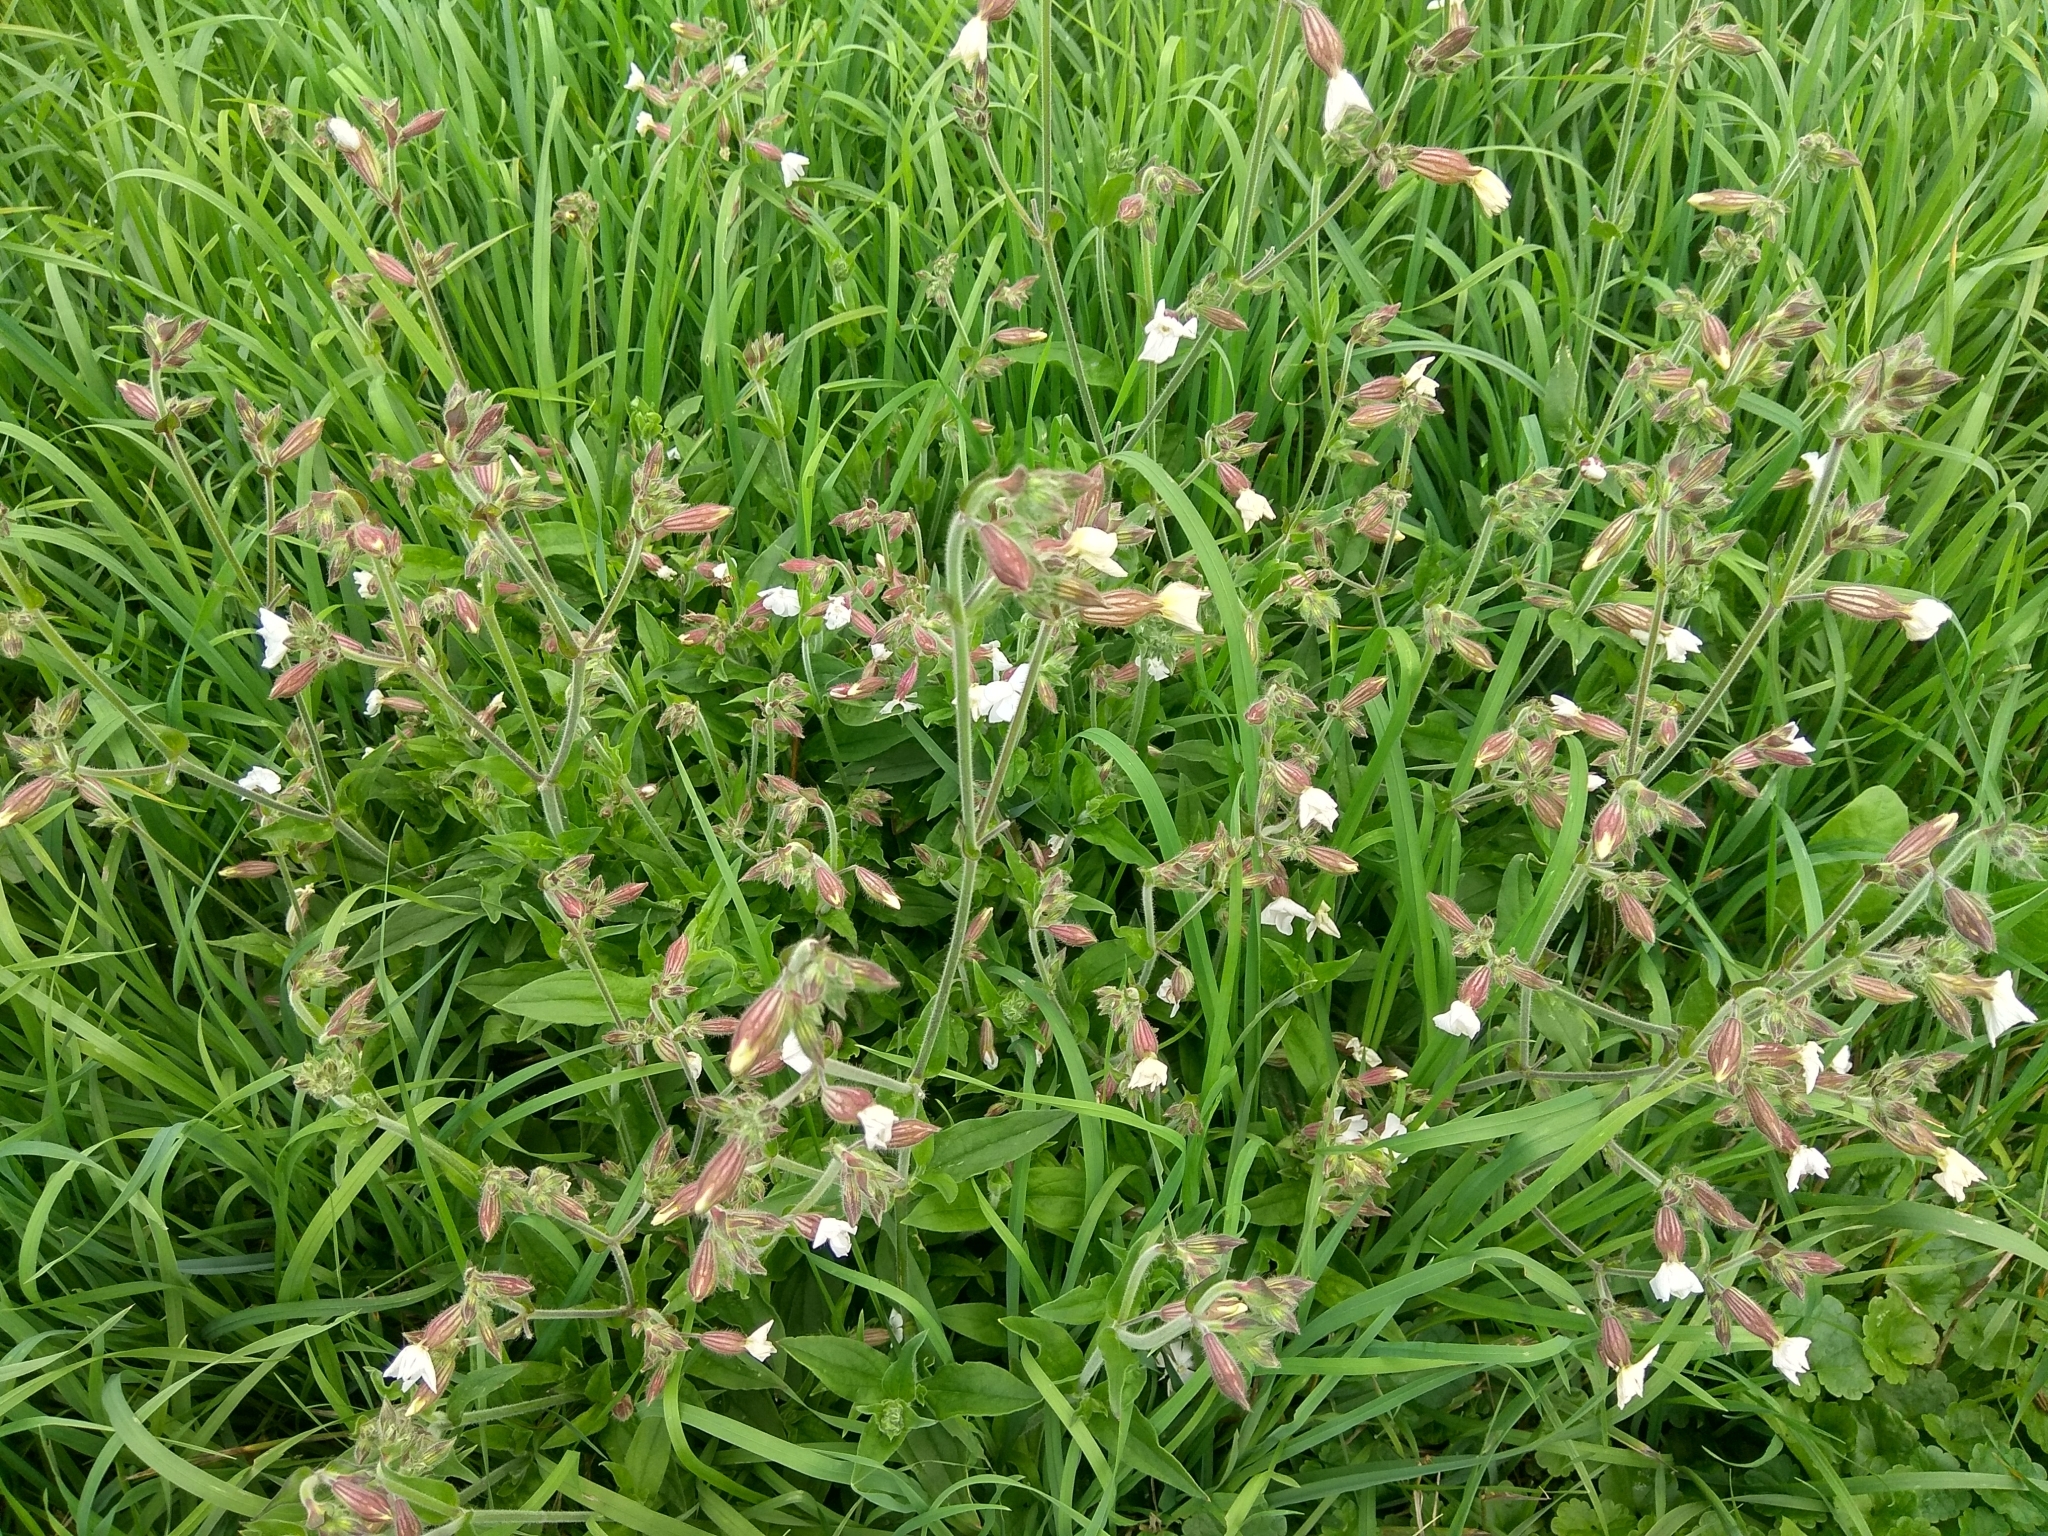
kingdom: Plantae
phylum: Tracheophyta
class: Magnoliopsida
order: Caryophyllales
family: Caryophyllaceae
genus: Silene
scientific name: Silene latifolia
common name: White campion
